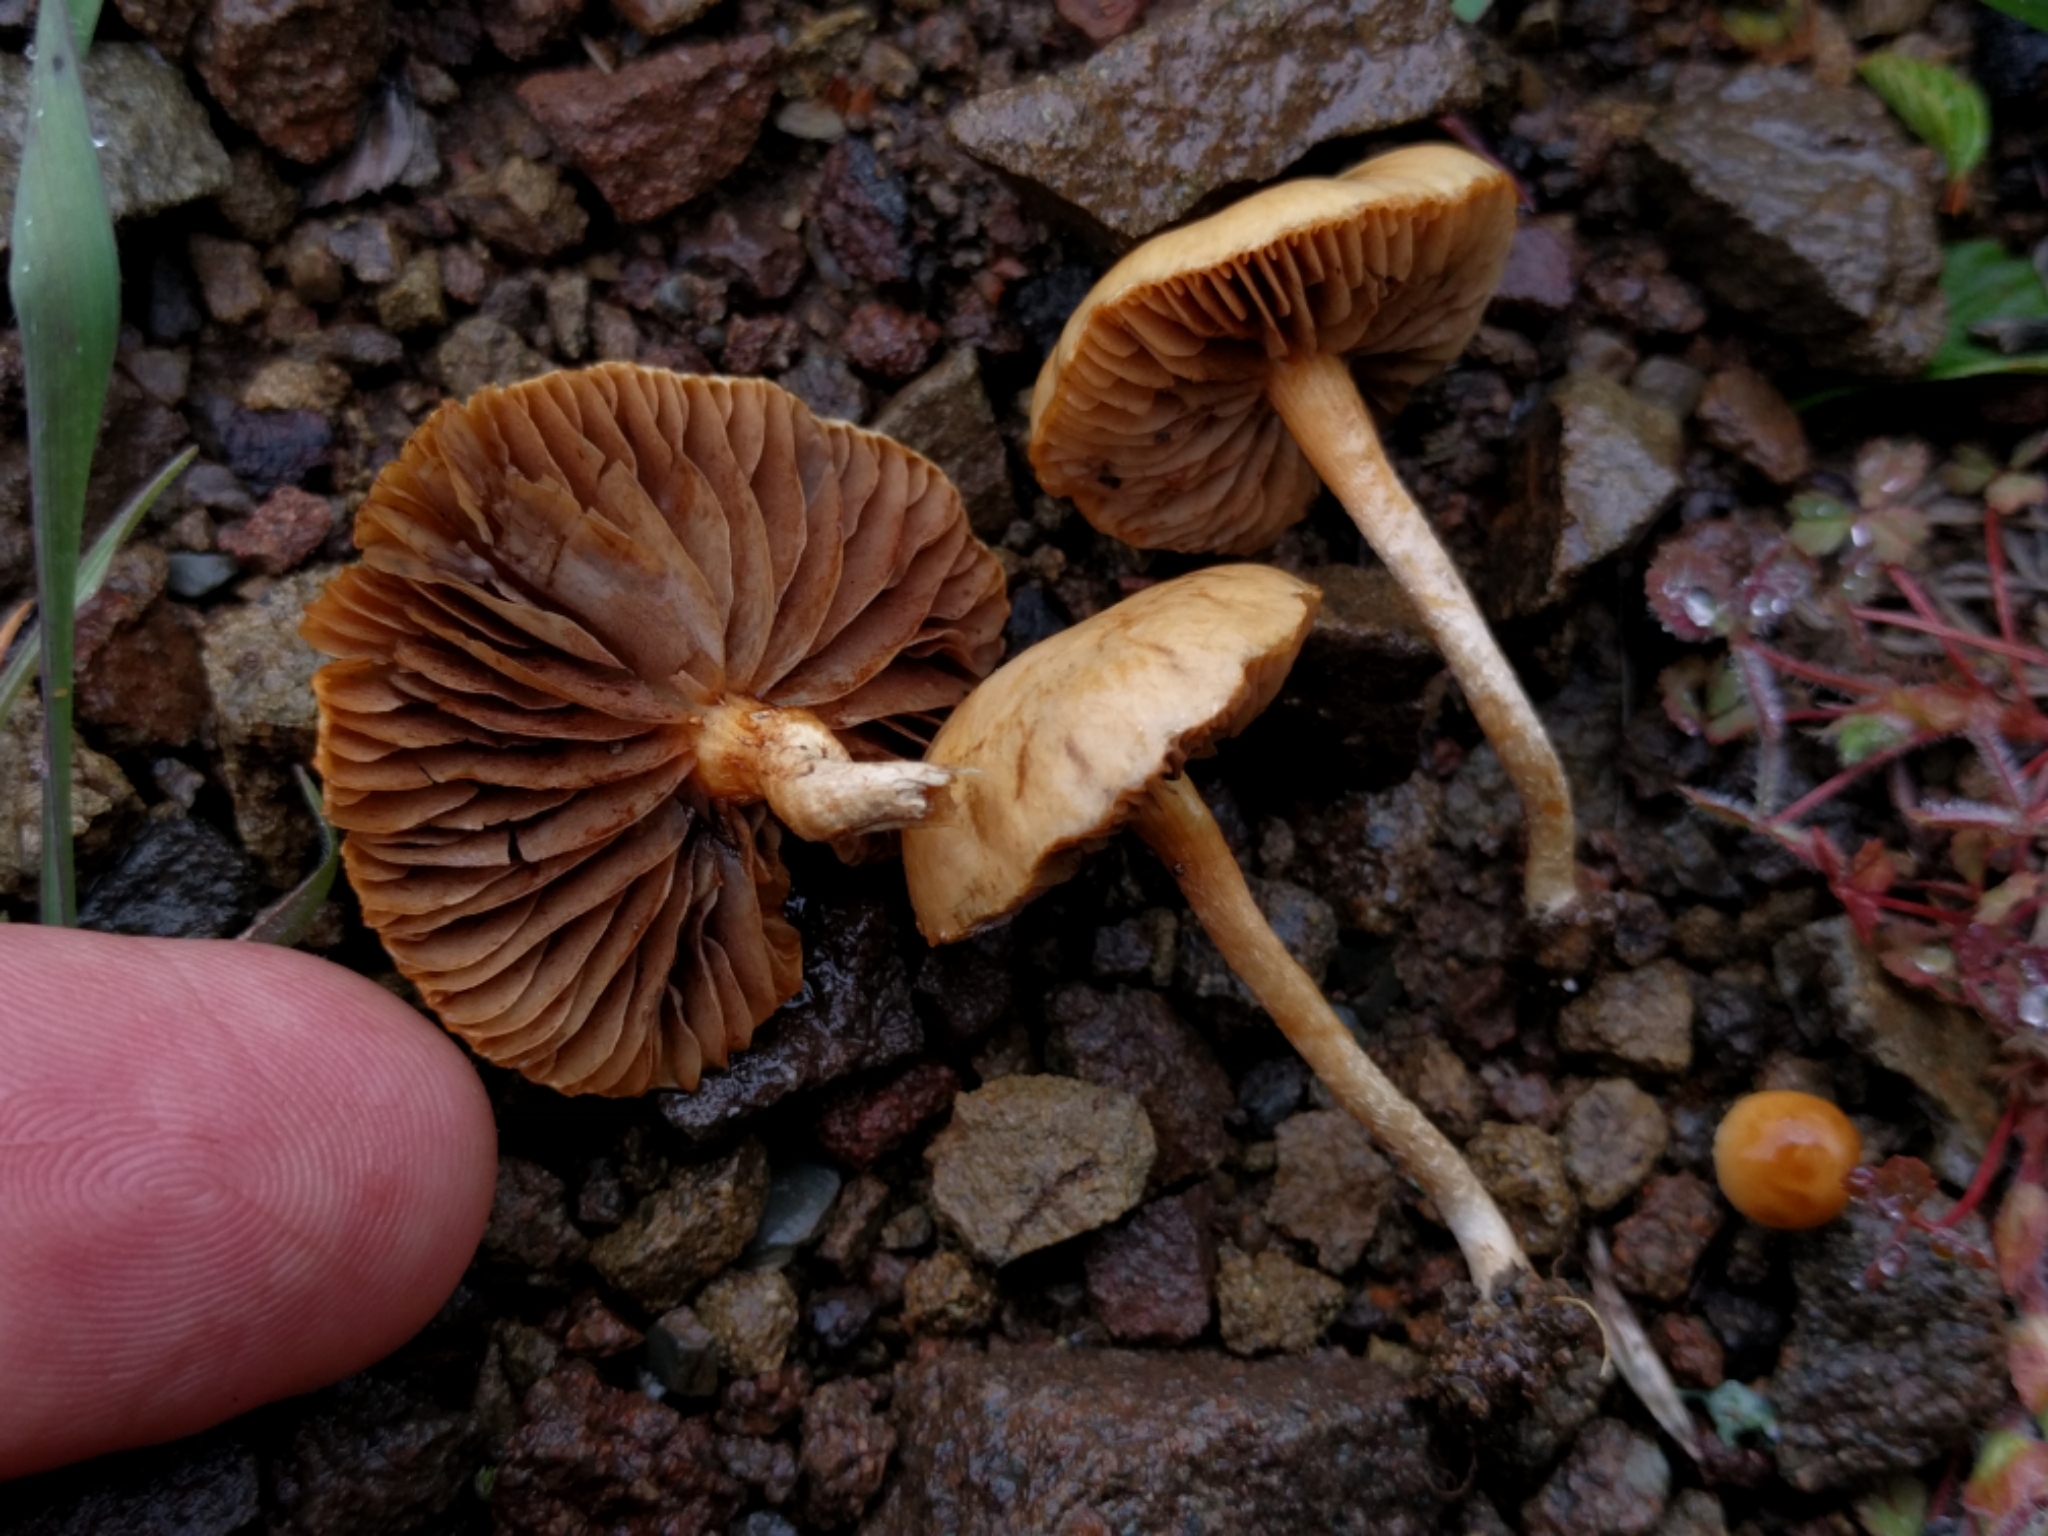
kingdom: Fungi
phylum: Basidiomycota
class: Agaricomycetes
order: Agaricales
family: Strophariaceae
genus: Agrocybe
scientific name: Agrocybe pediades
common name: Common fieldcap
